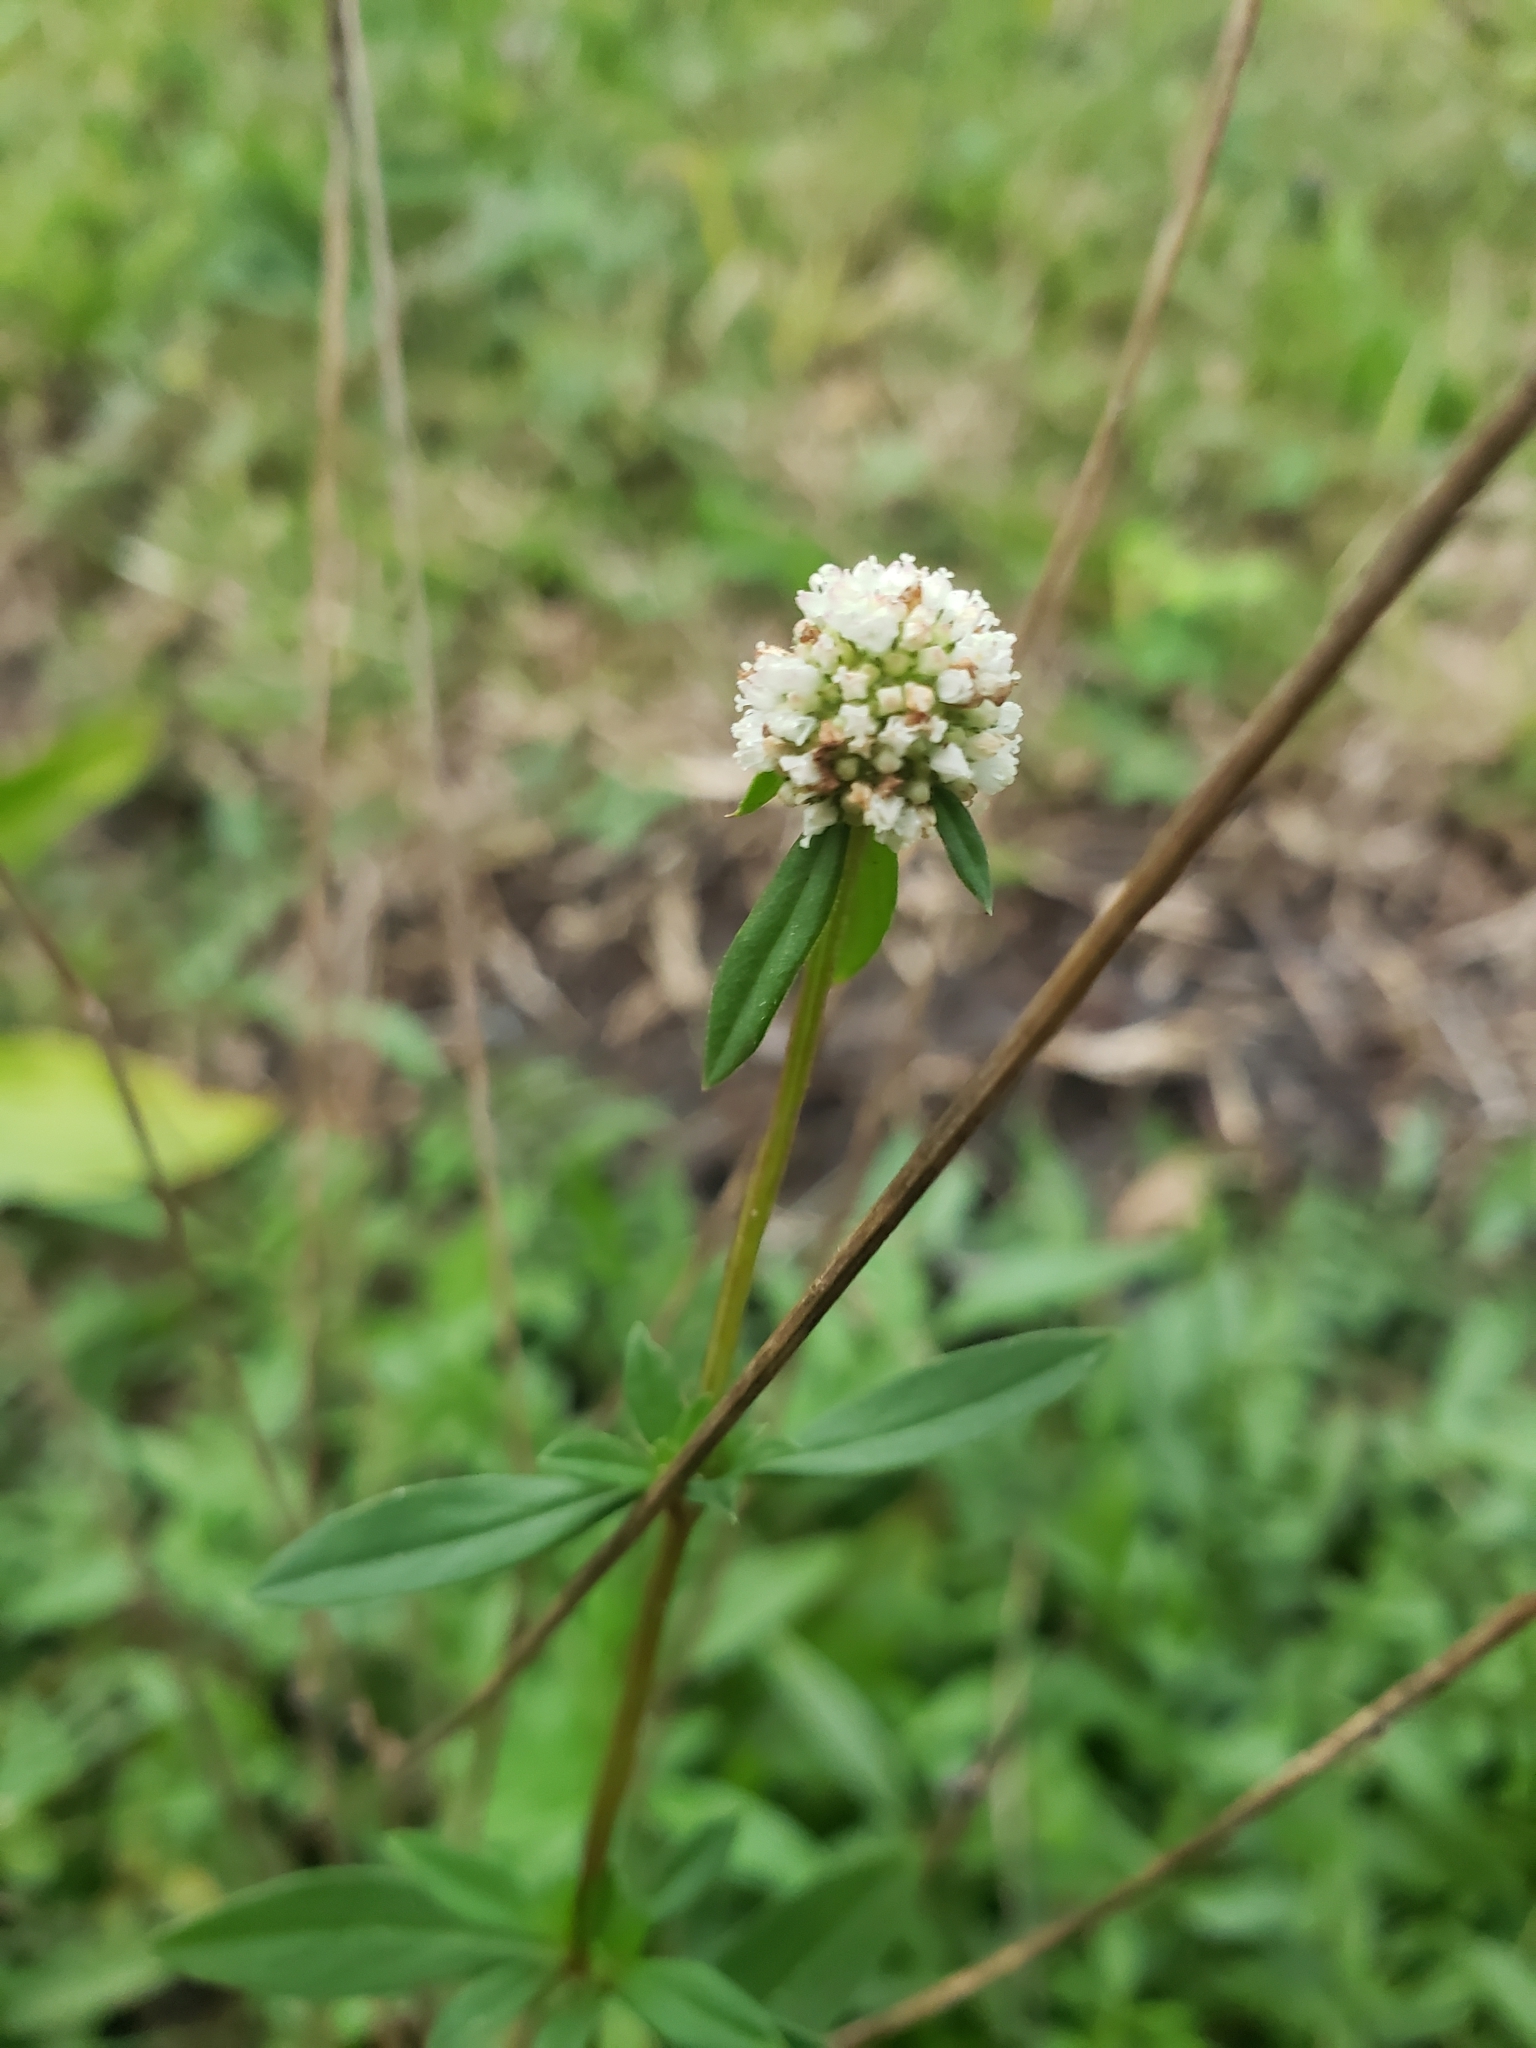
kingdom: Plantae
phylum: Tracheophyta
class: Magnoliopsida
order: Gentianales
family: Rubiaceae
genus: Spermacoce
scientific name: Spermacoce verticillata
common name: Shrubby false buttonweed
